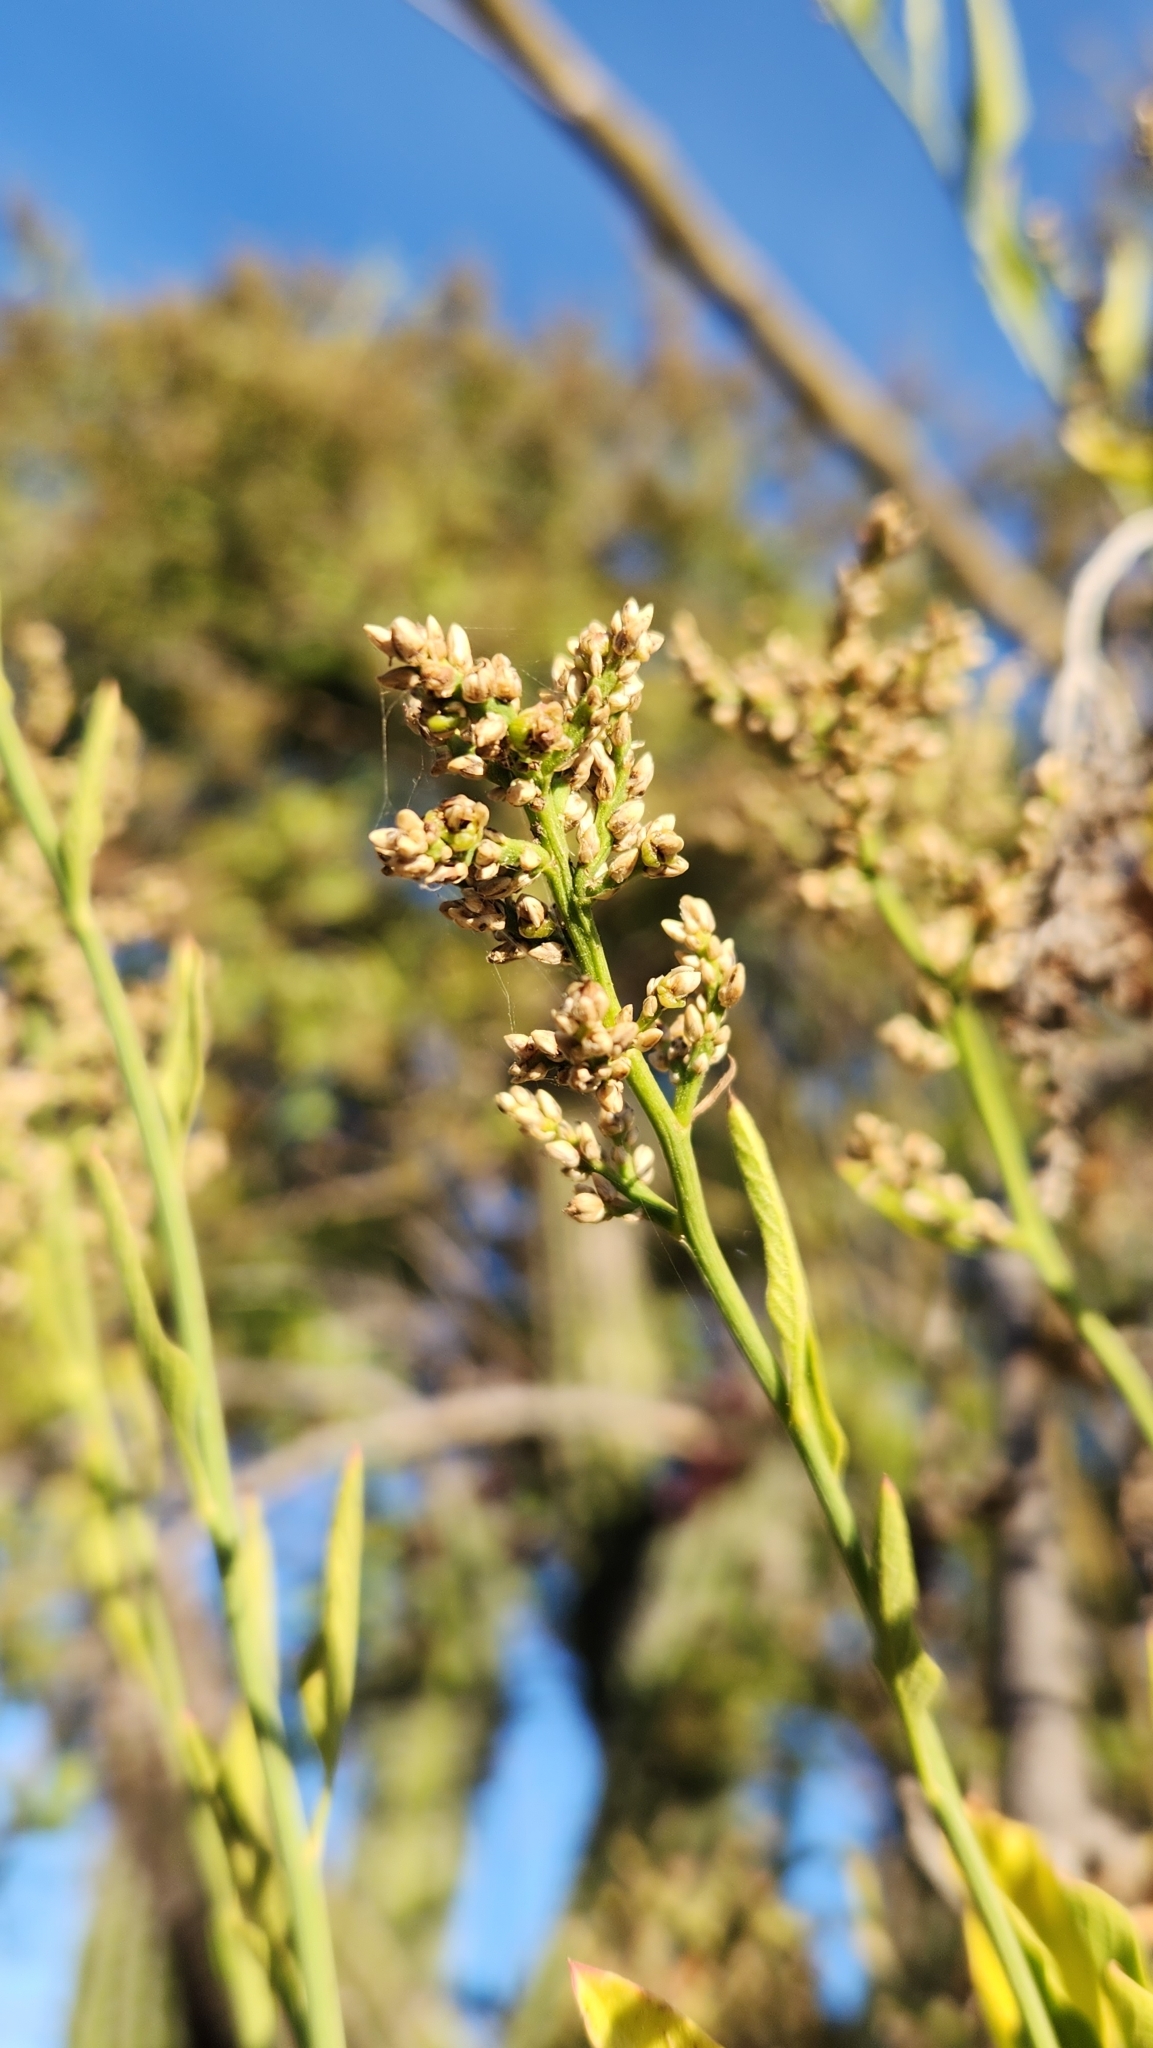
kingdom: Plantae
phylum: Tracheophyta
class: Magnoliopsida
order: Caryophyllales
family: Amaranthaceae
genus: Celosia
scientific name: Celosia floribunda
